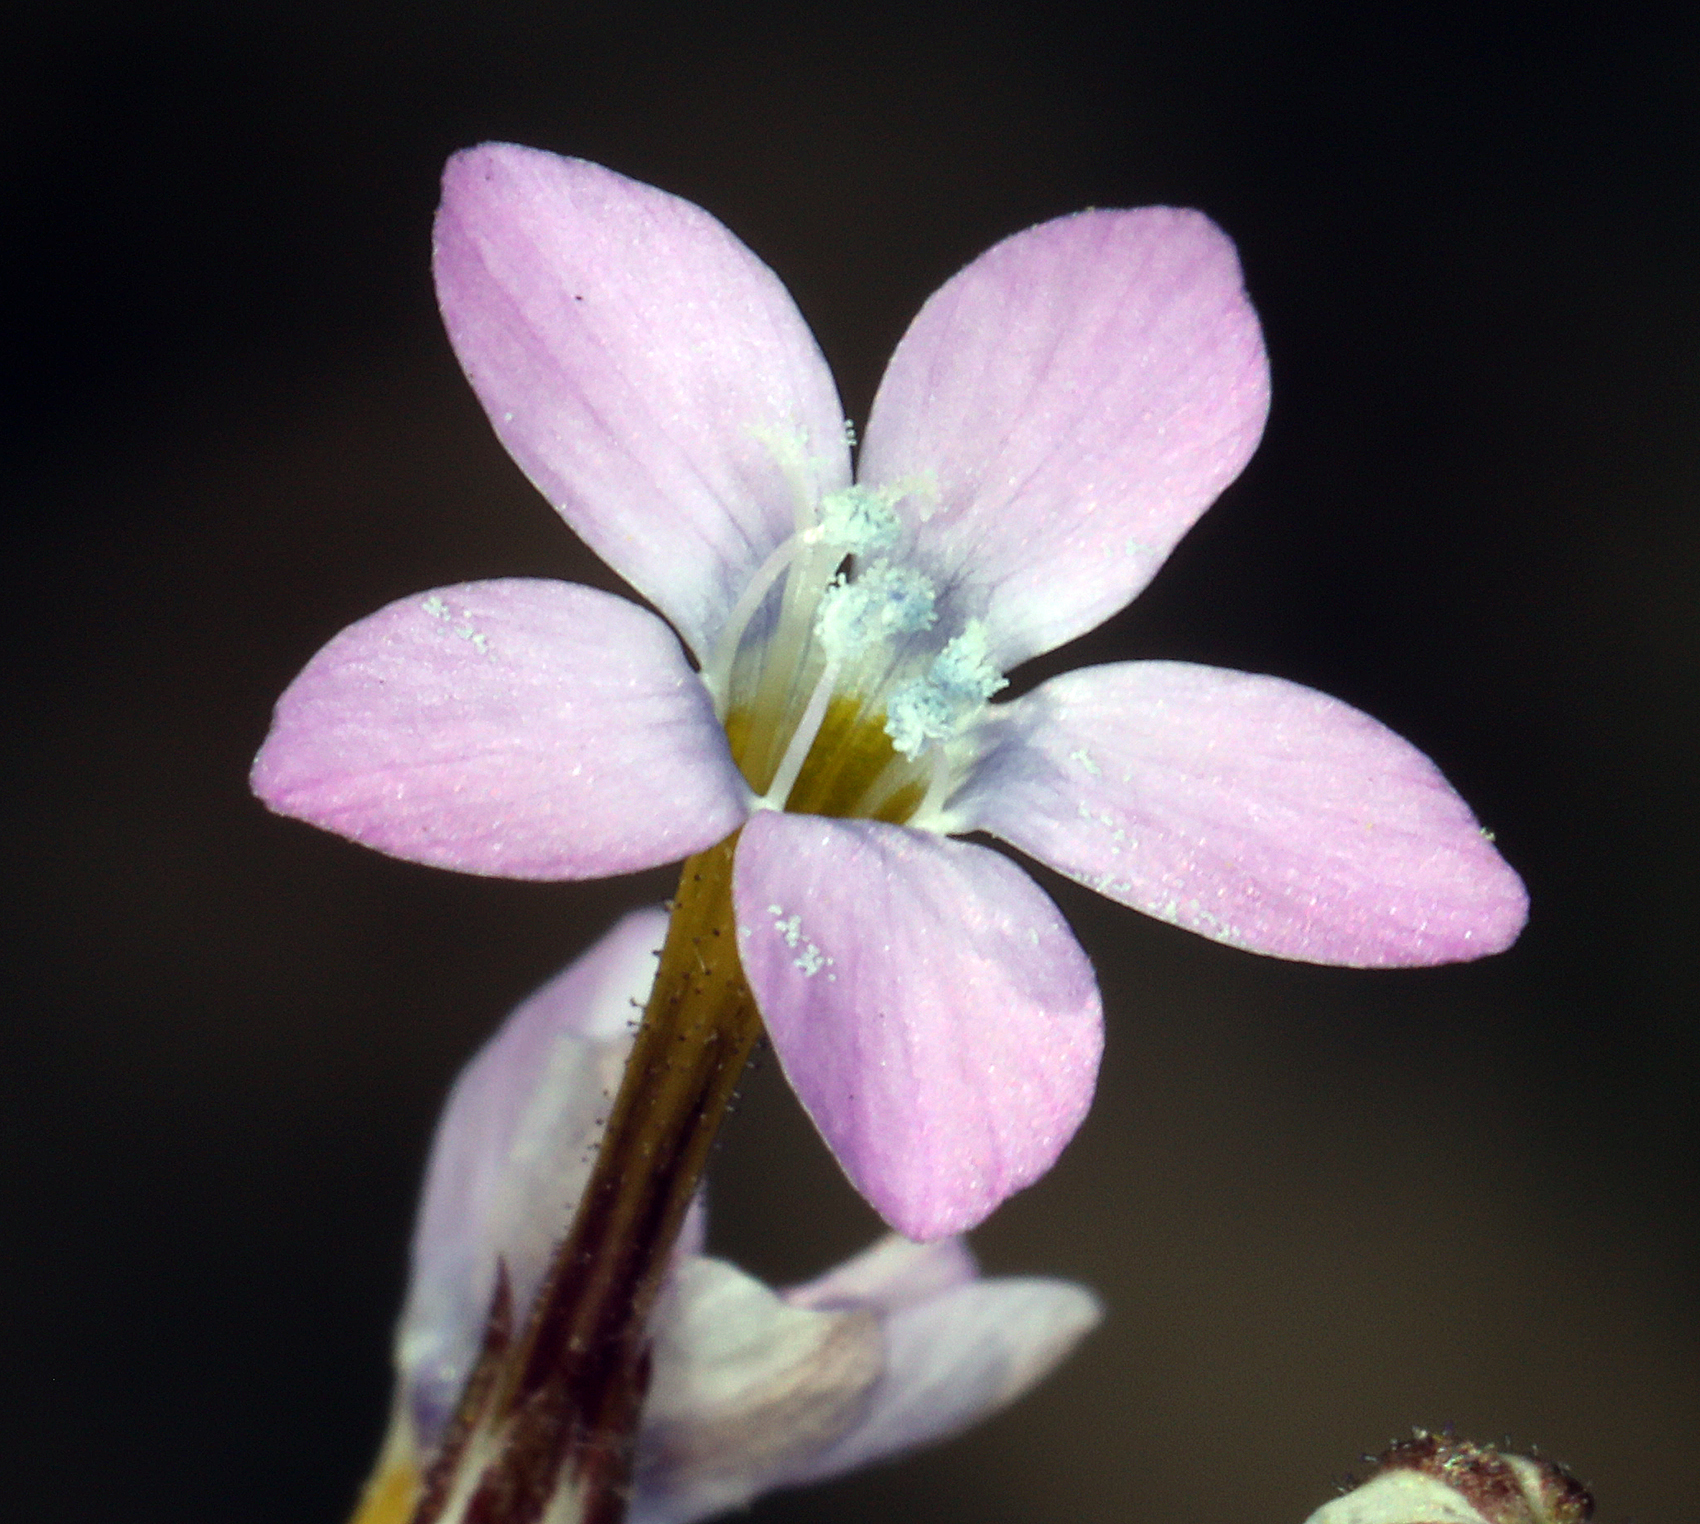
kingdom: Plantae
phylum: Tracheophyta
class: Magnoliopsida
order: Ericales
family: Polemoniaceae
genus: Gilia
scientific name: Gilia ophthalmoides
